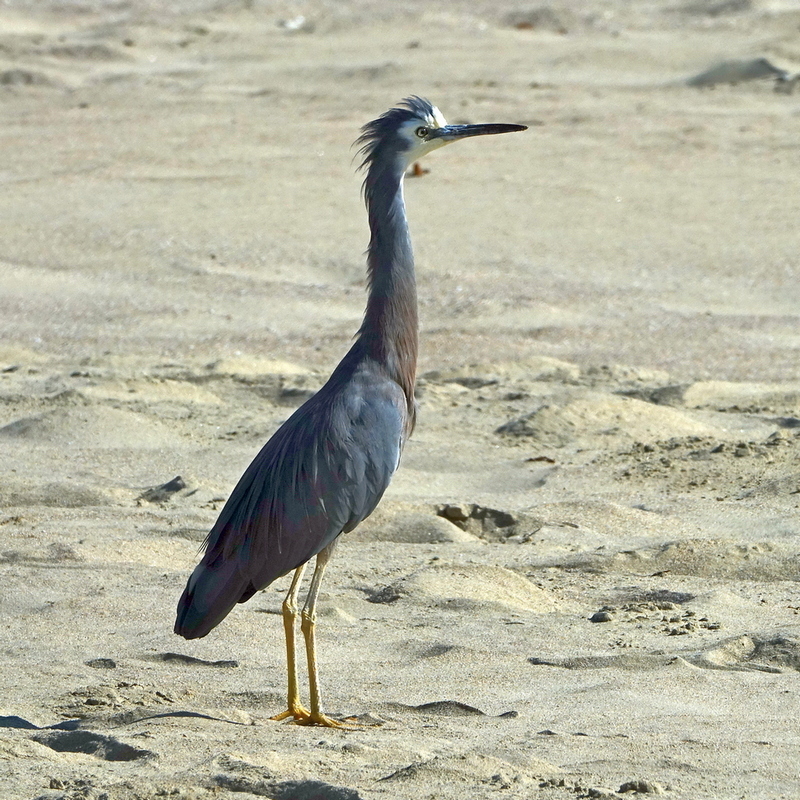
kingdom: Animalia
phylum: Chordata
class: Aves
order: Pelecaniformes
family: Ardeidae
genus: Egretta
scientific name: Egretta novaehollandiae
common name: White-faced heron
